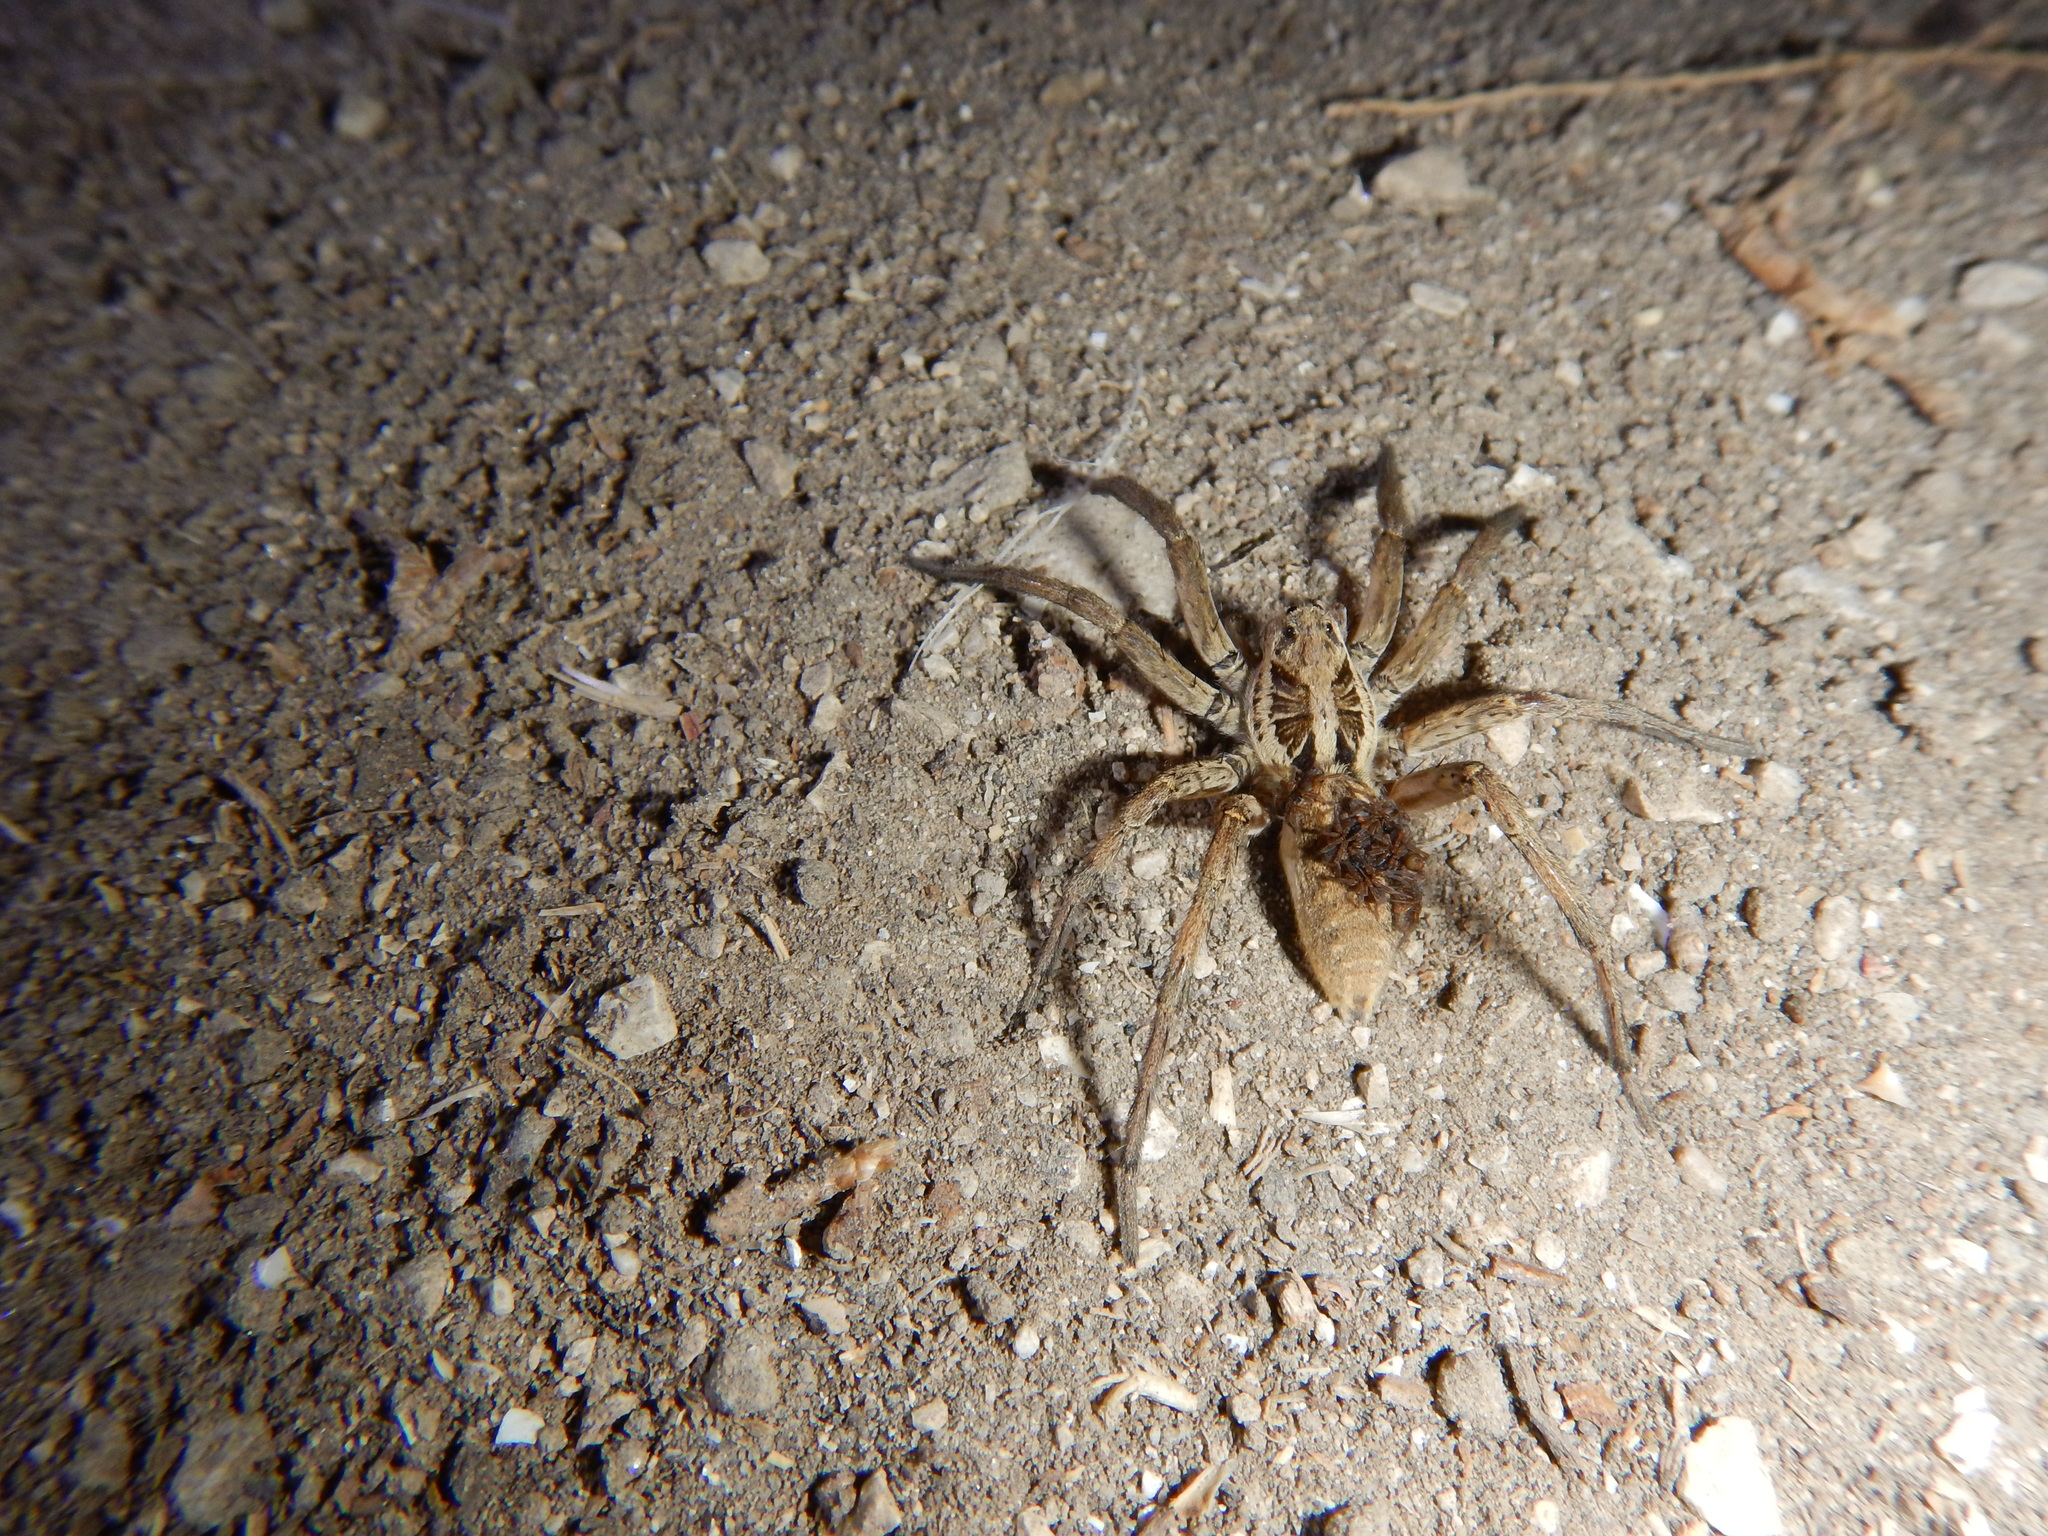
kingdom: Animalia
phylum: Arthropoda
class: Arachnida
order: Araneae
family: Lycosidae
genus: Hogna
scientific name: Hogna radiata
